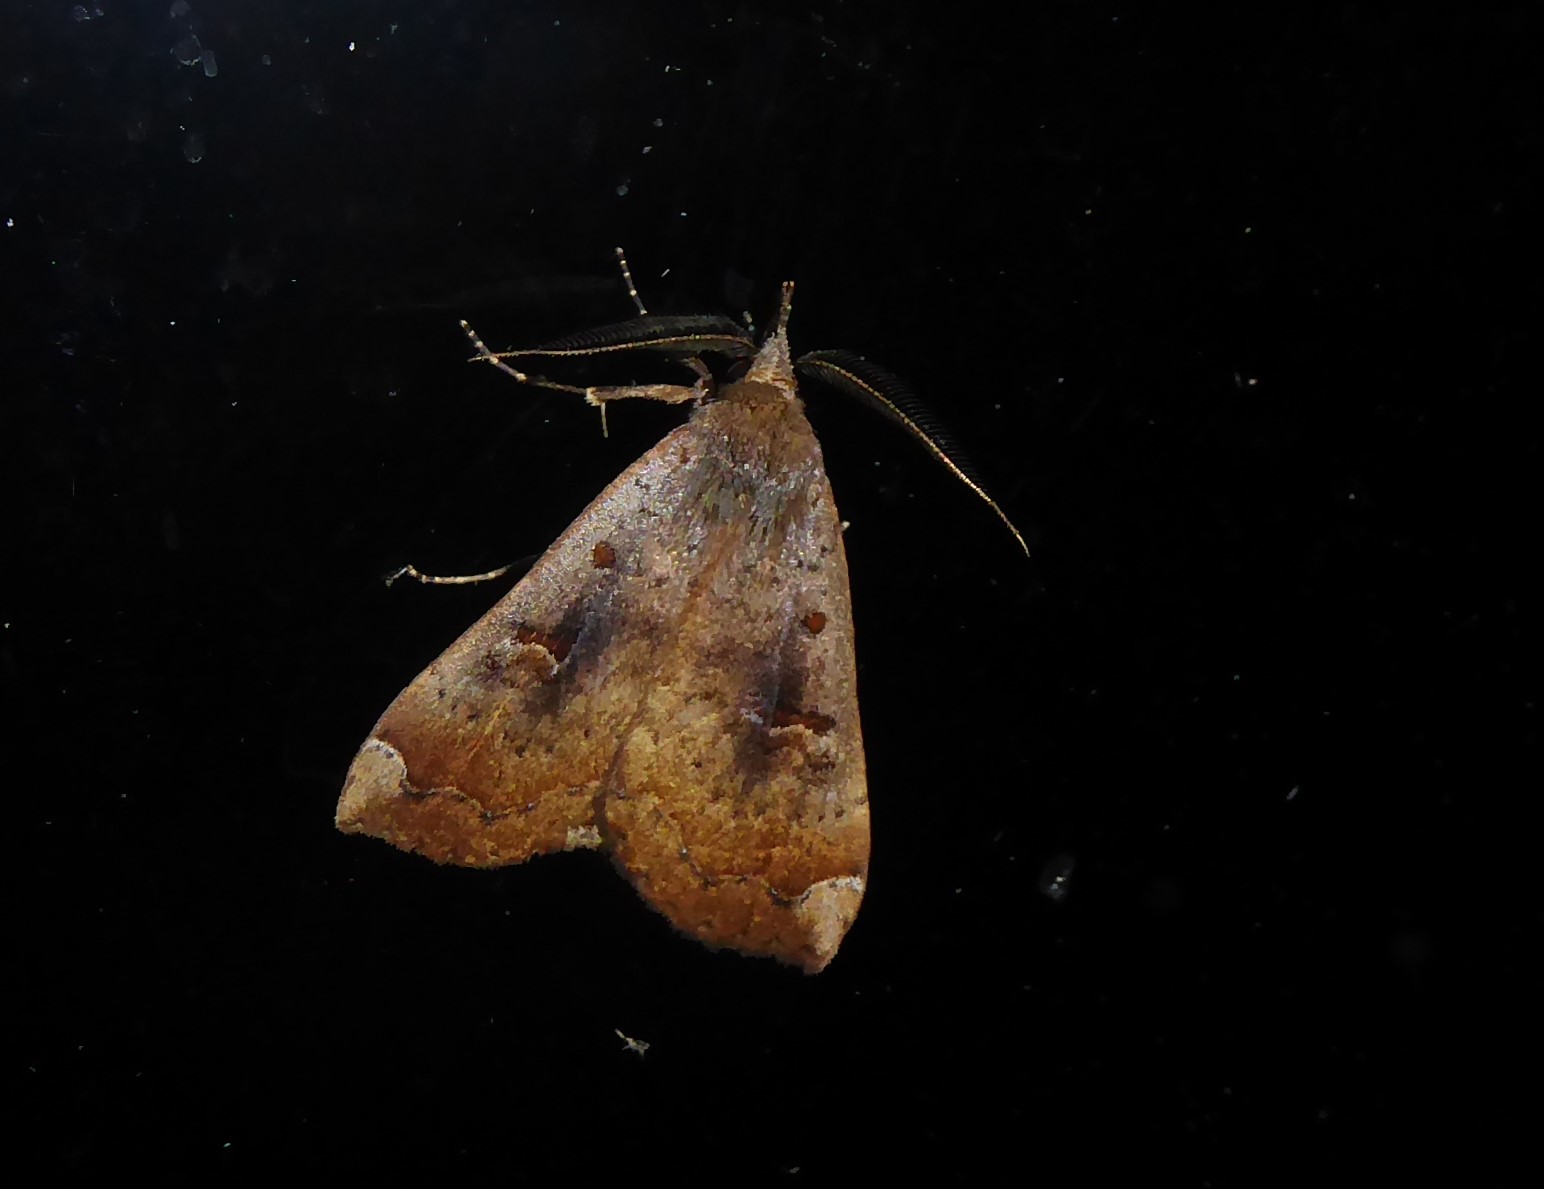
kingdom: Animalia
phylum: Arthropoda
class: Insecta
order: Lepidoptera
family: Erebidae
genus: Rhapsa
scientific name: Rhapsa scotosialis
